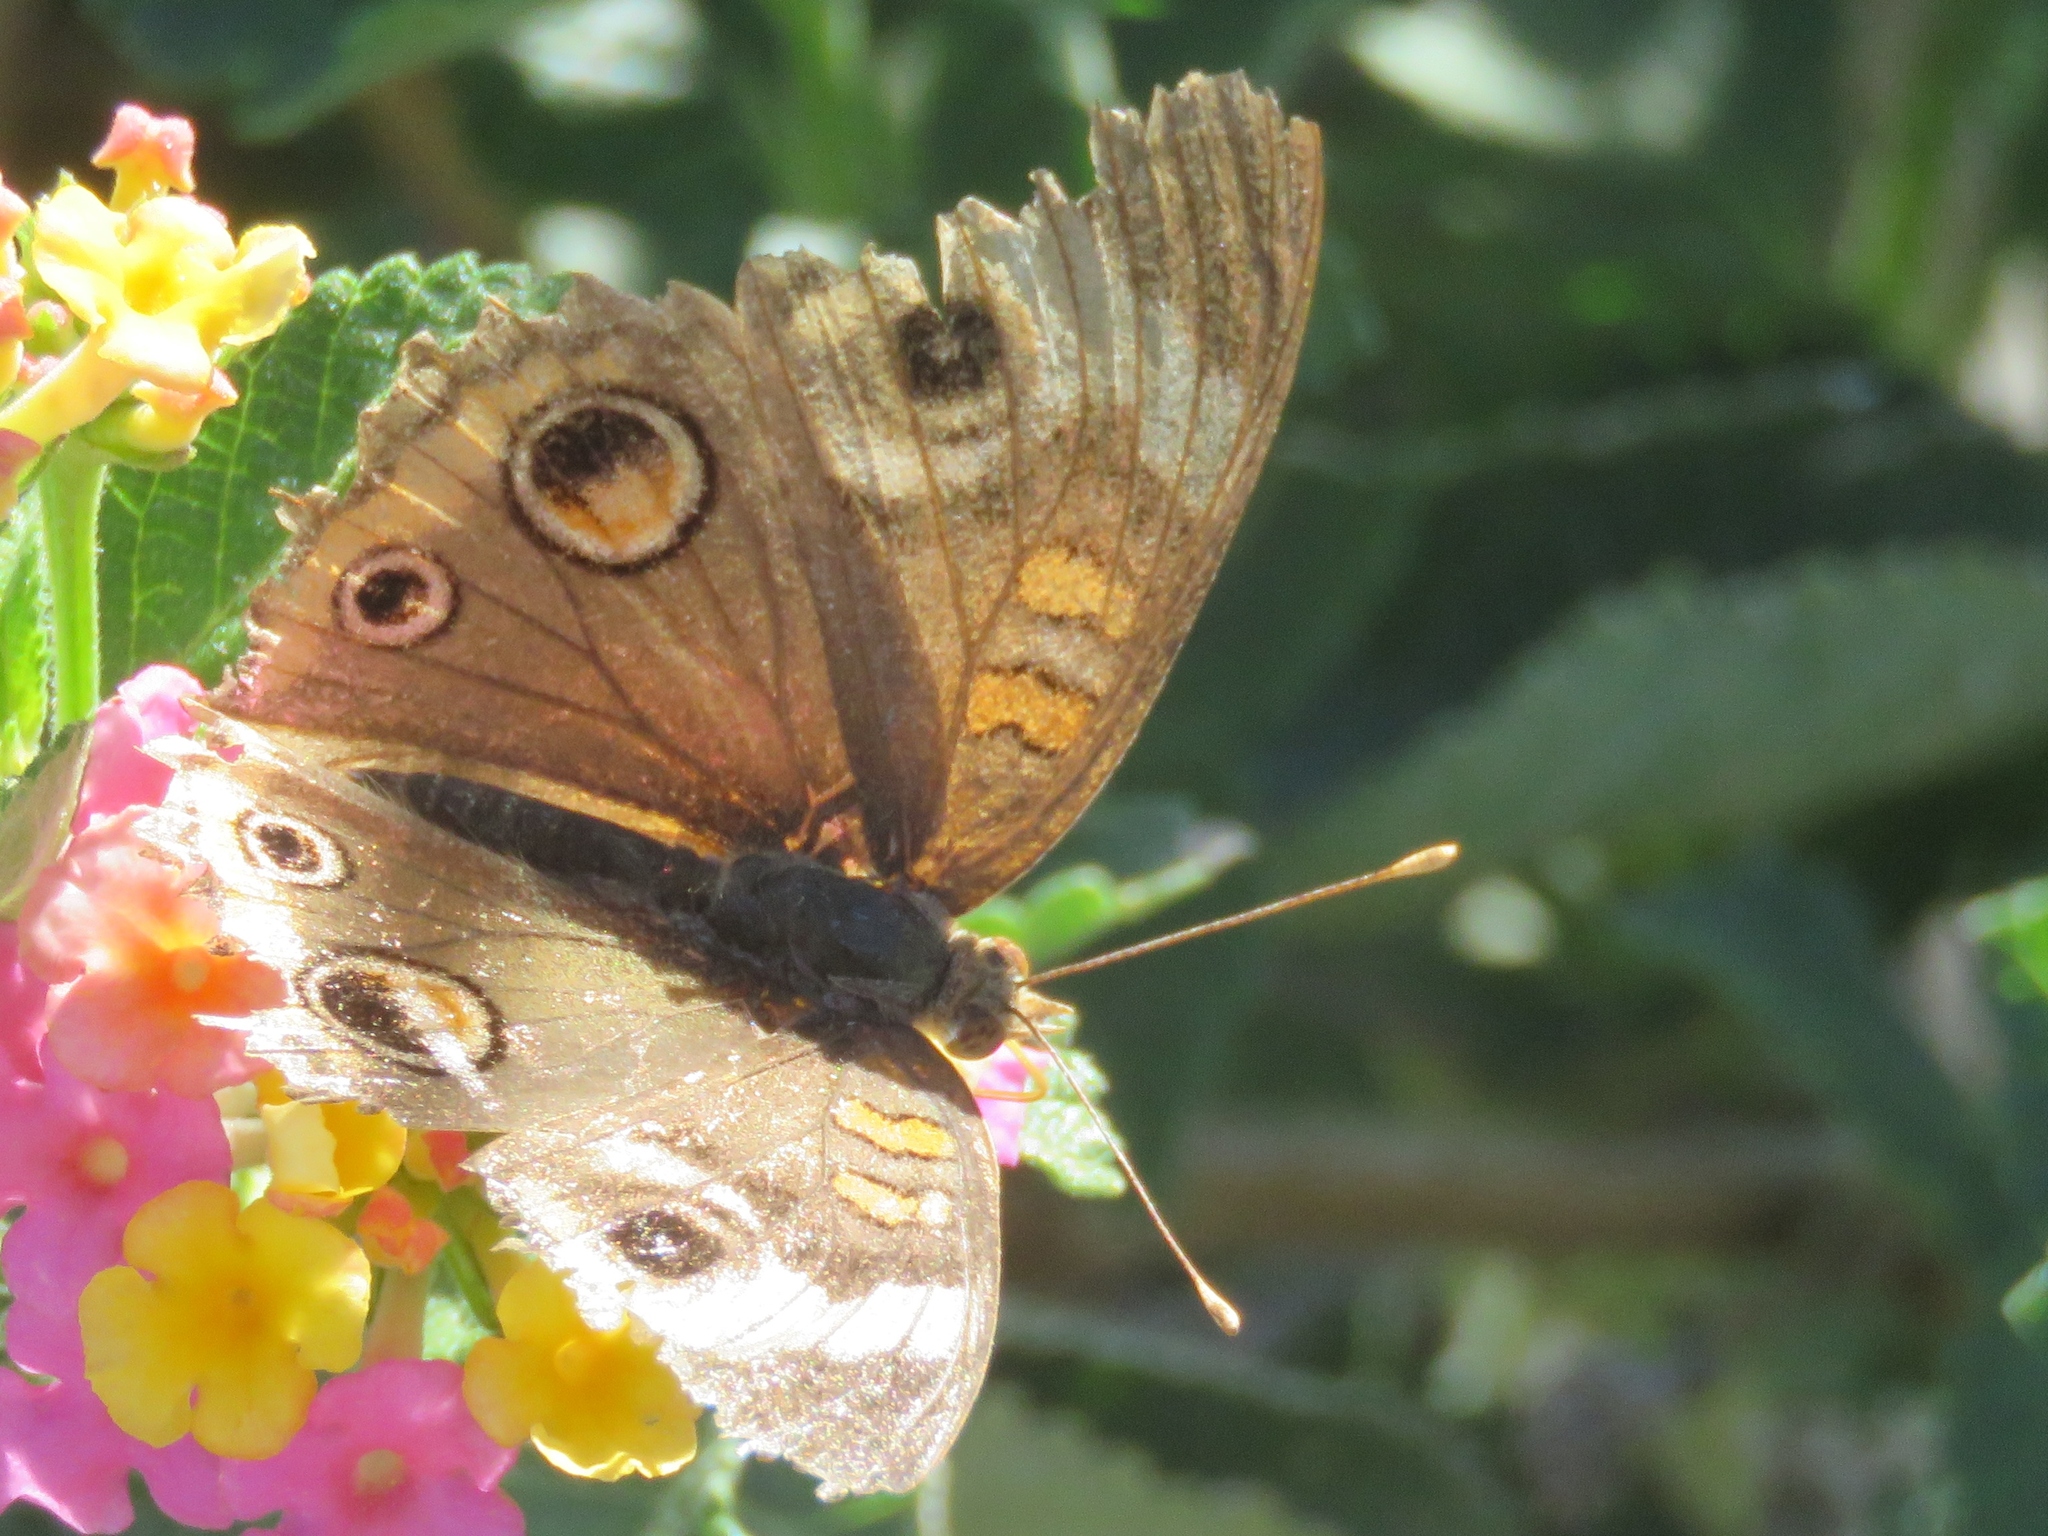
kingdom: Animalia
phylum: Arthropoda
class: Insecta
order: Lepidoptera
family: Nymphalidae
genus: Junonia
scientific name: Junonia coenia
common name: Common buckeye
